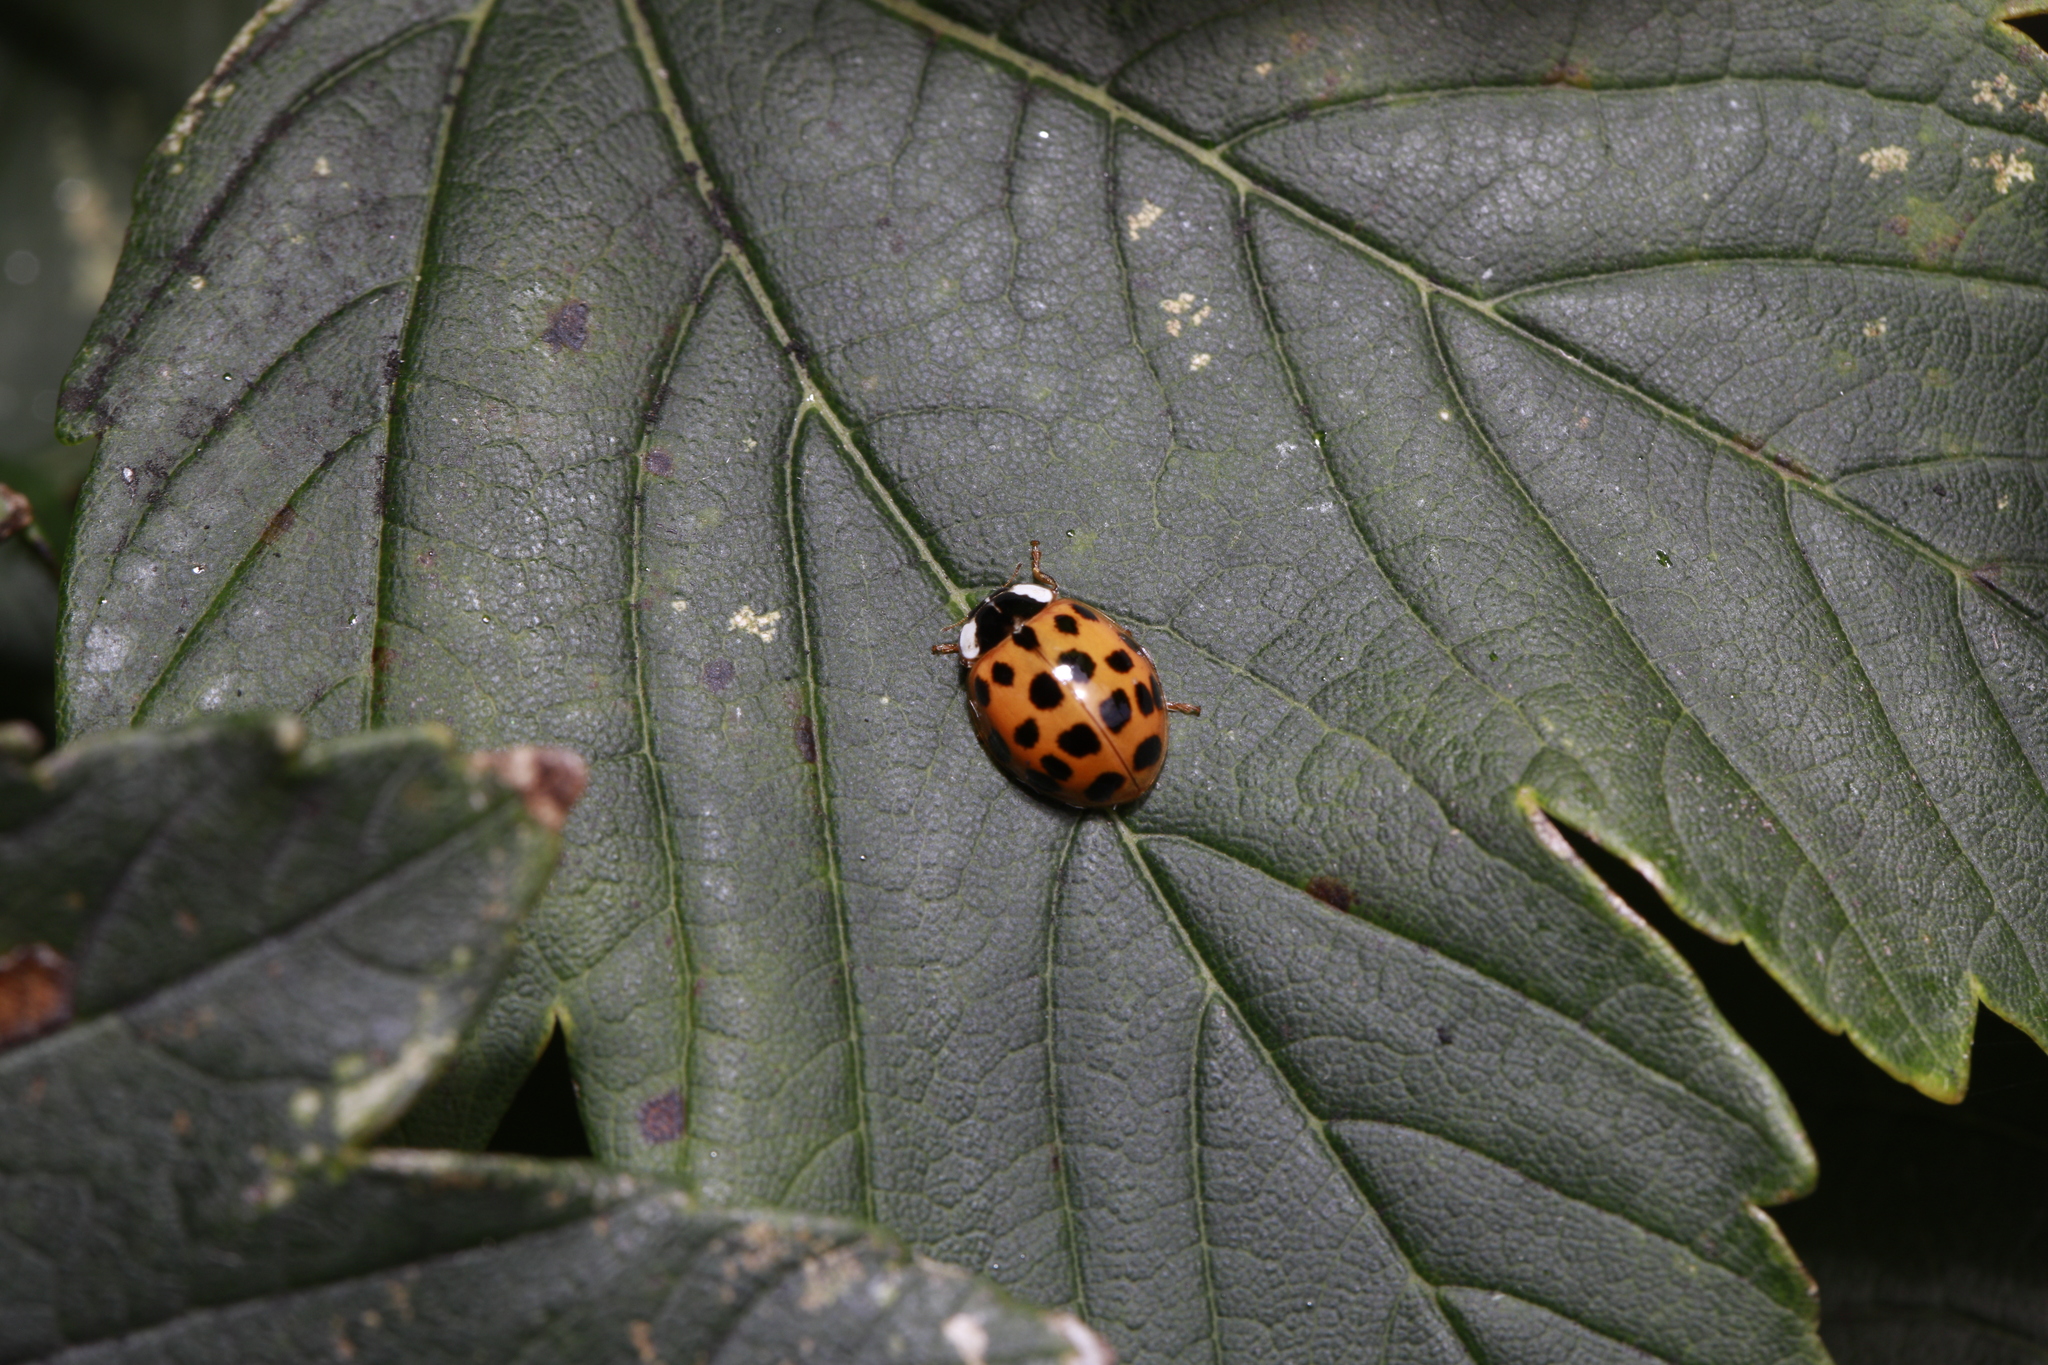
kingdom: Animalia
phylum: Arthropoda
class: Insecta
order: Coleoptera
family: Coccinellidae
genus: Harmonia
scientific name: Harmonia axyridis
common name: Harlequin ladybird
